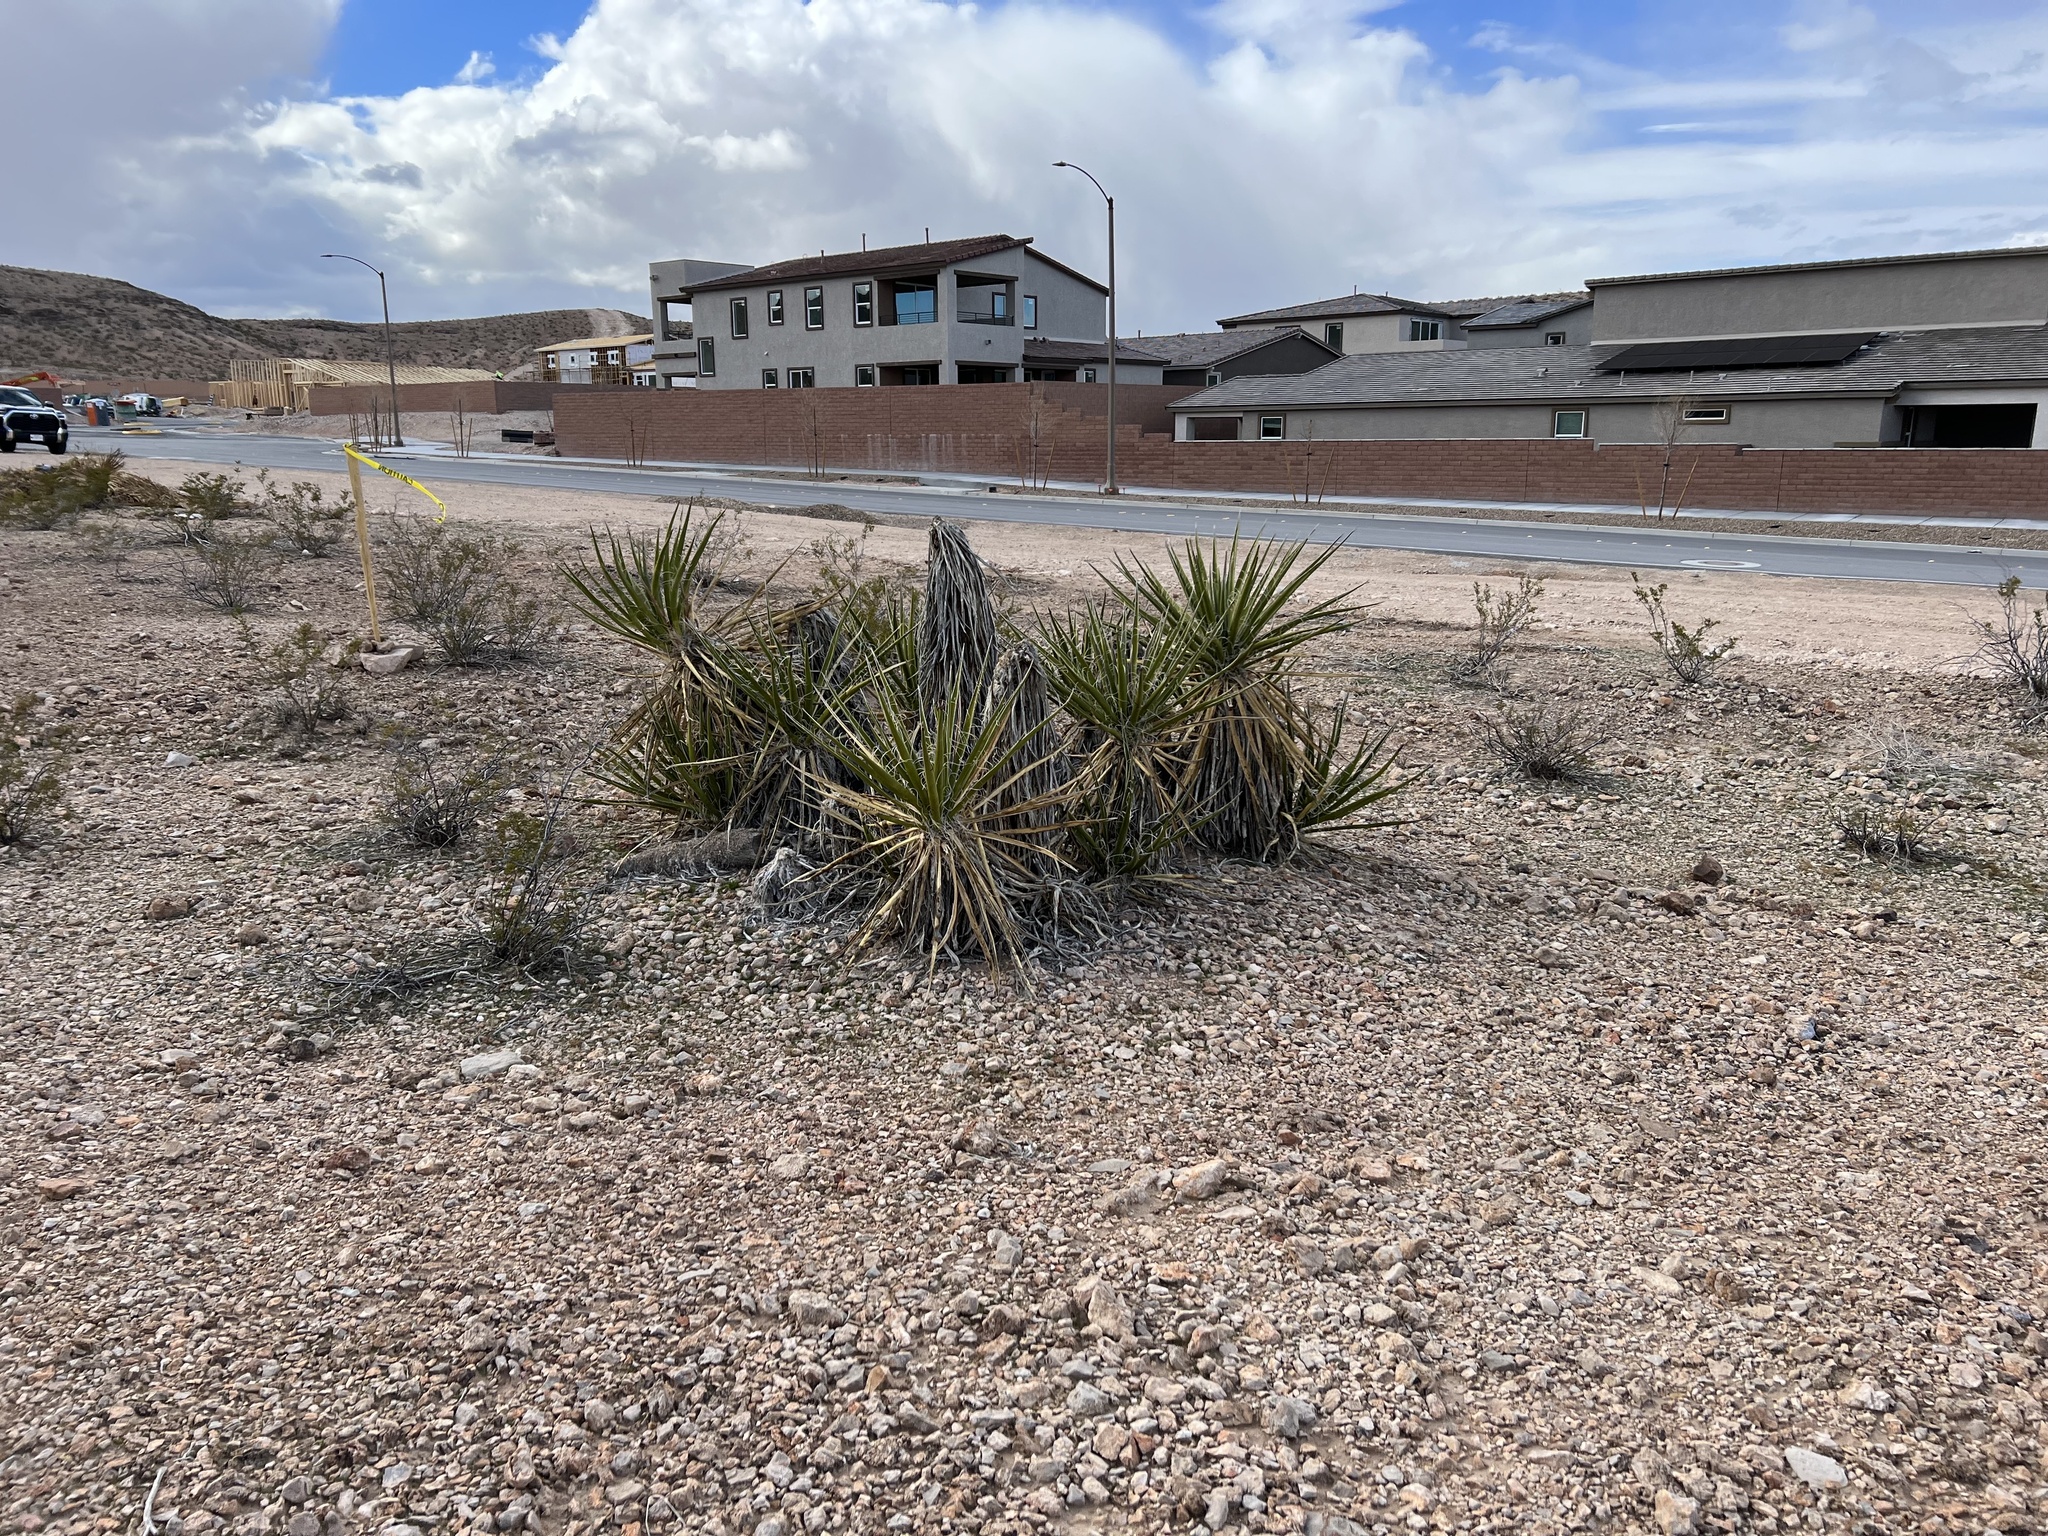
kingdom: Plantae
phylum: Tracheophyta
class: Liliopsida
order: Asparagales
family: Asparagaceae
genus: Yucca
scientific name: Yucca schidigera
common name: Mojave yucca
